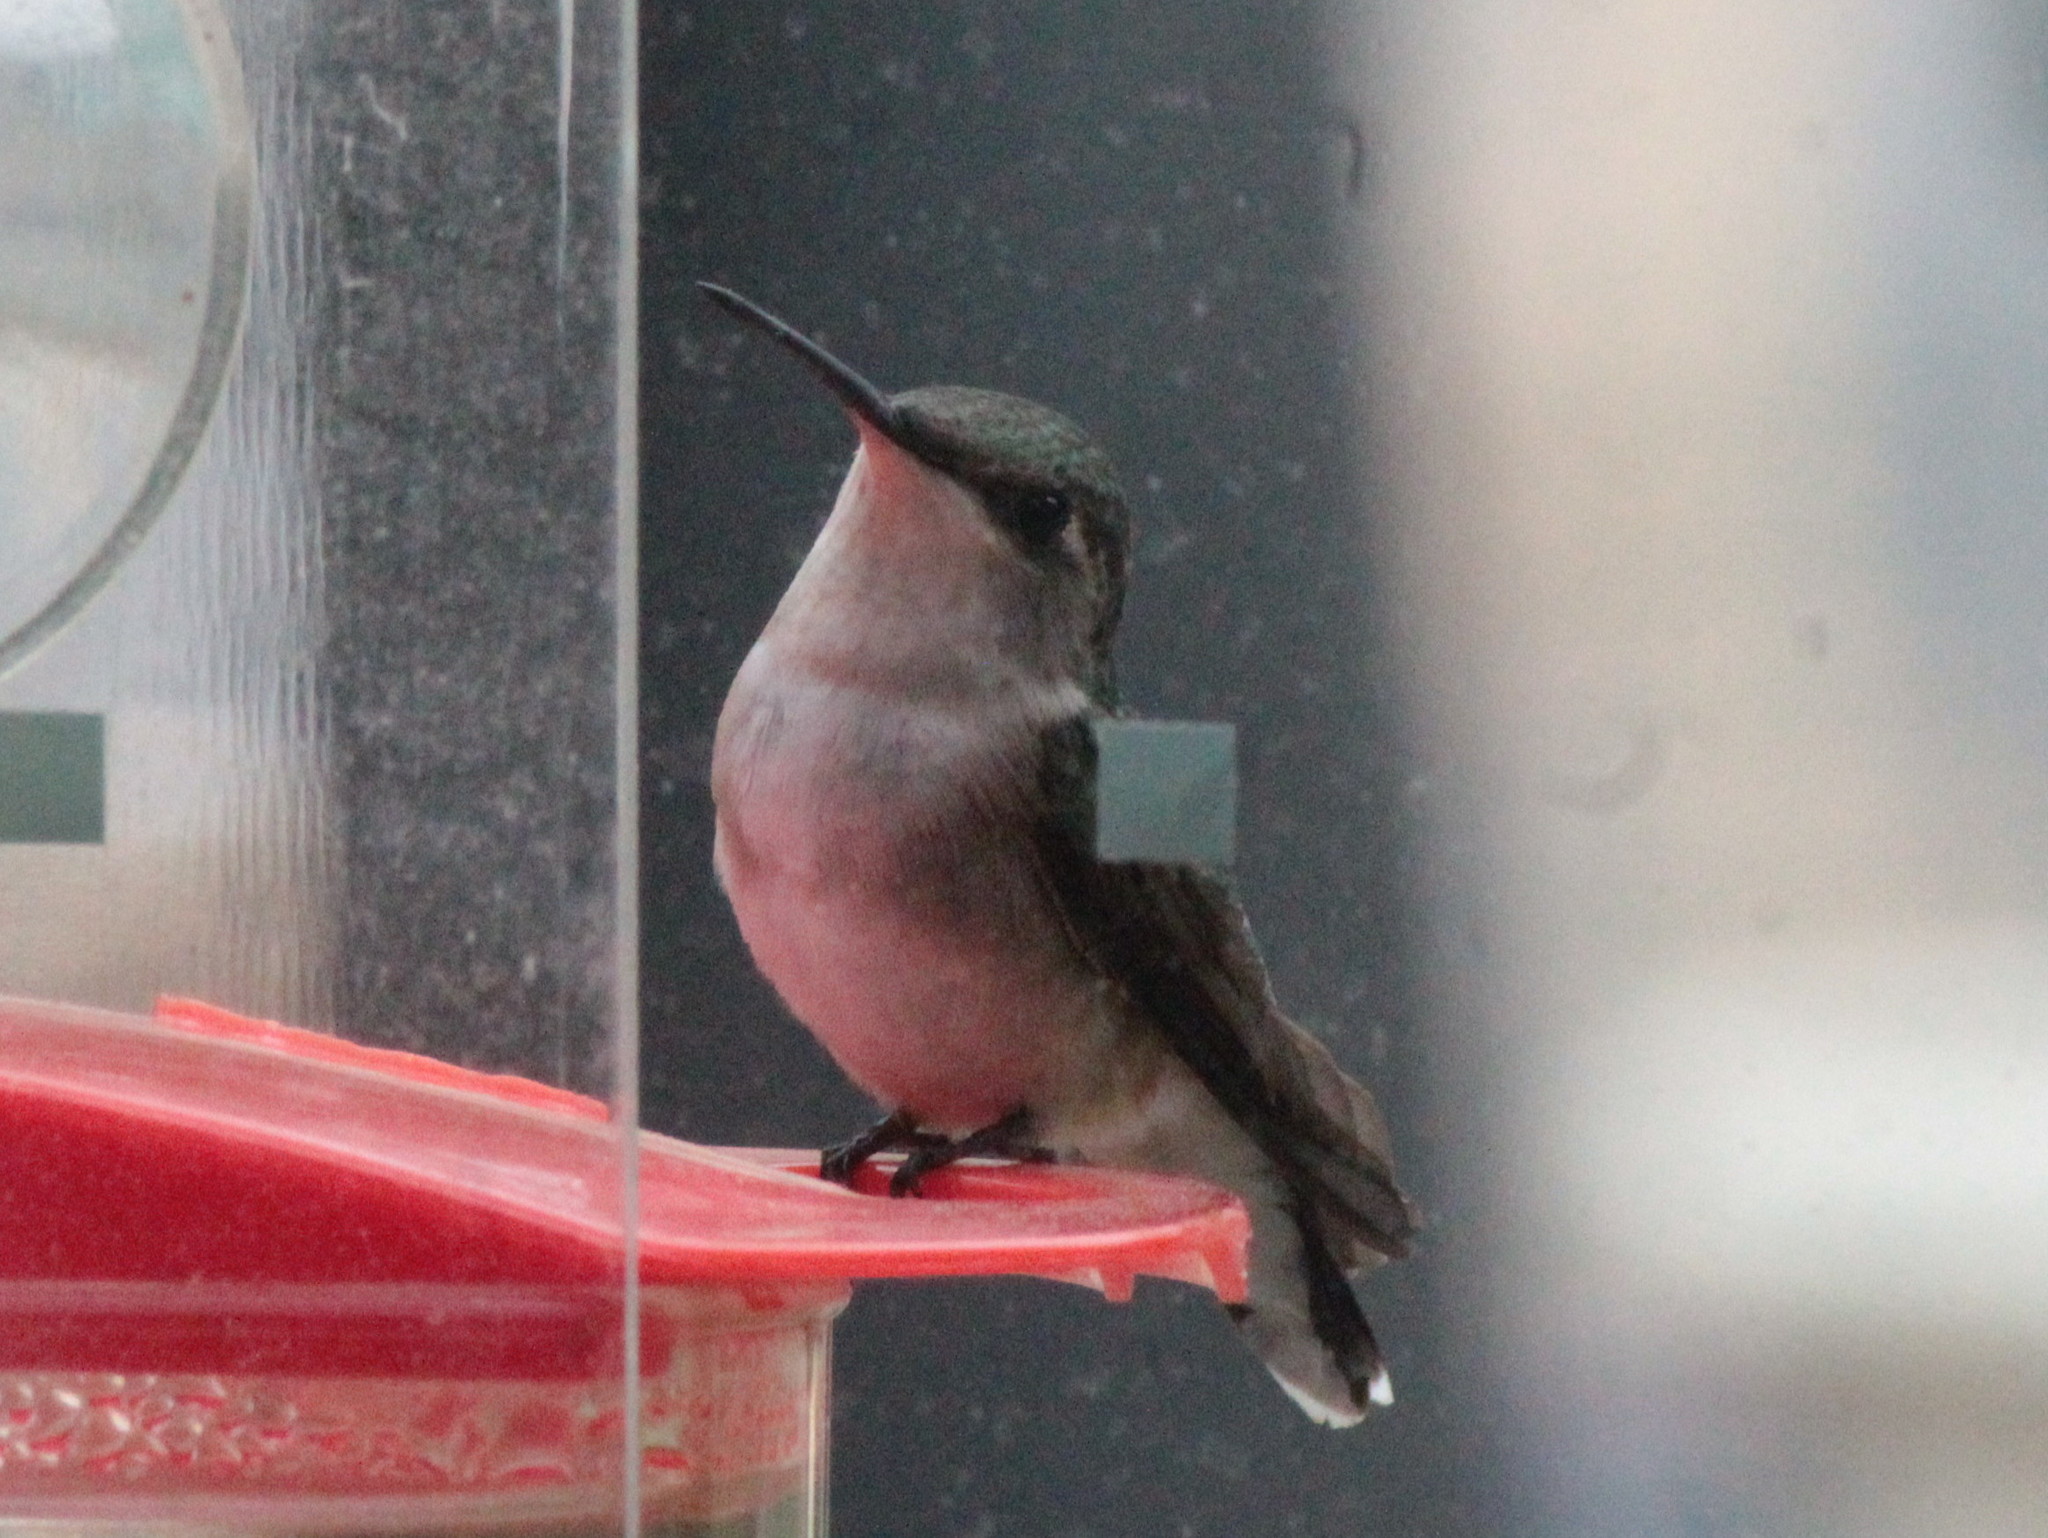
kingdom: Animalia
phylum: Chordata
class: Aves
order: Apodiformes
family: Trochilidae
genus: Archilochus
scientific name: Archilochus colubris
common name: Ruby-throated hummingbird
